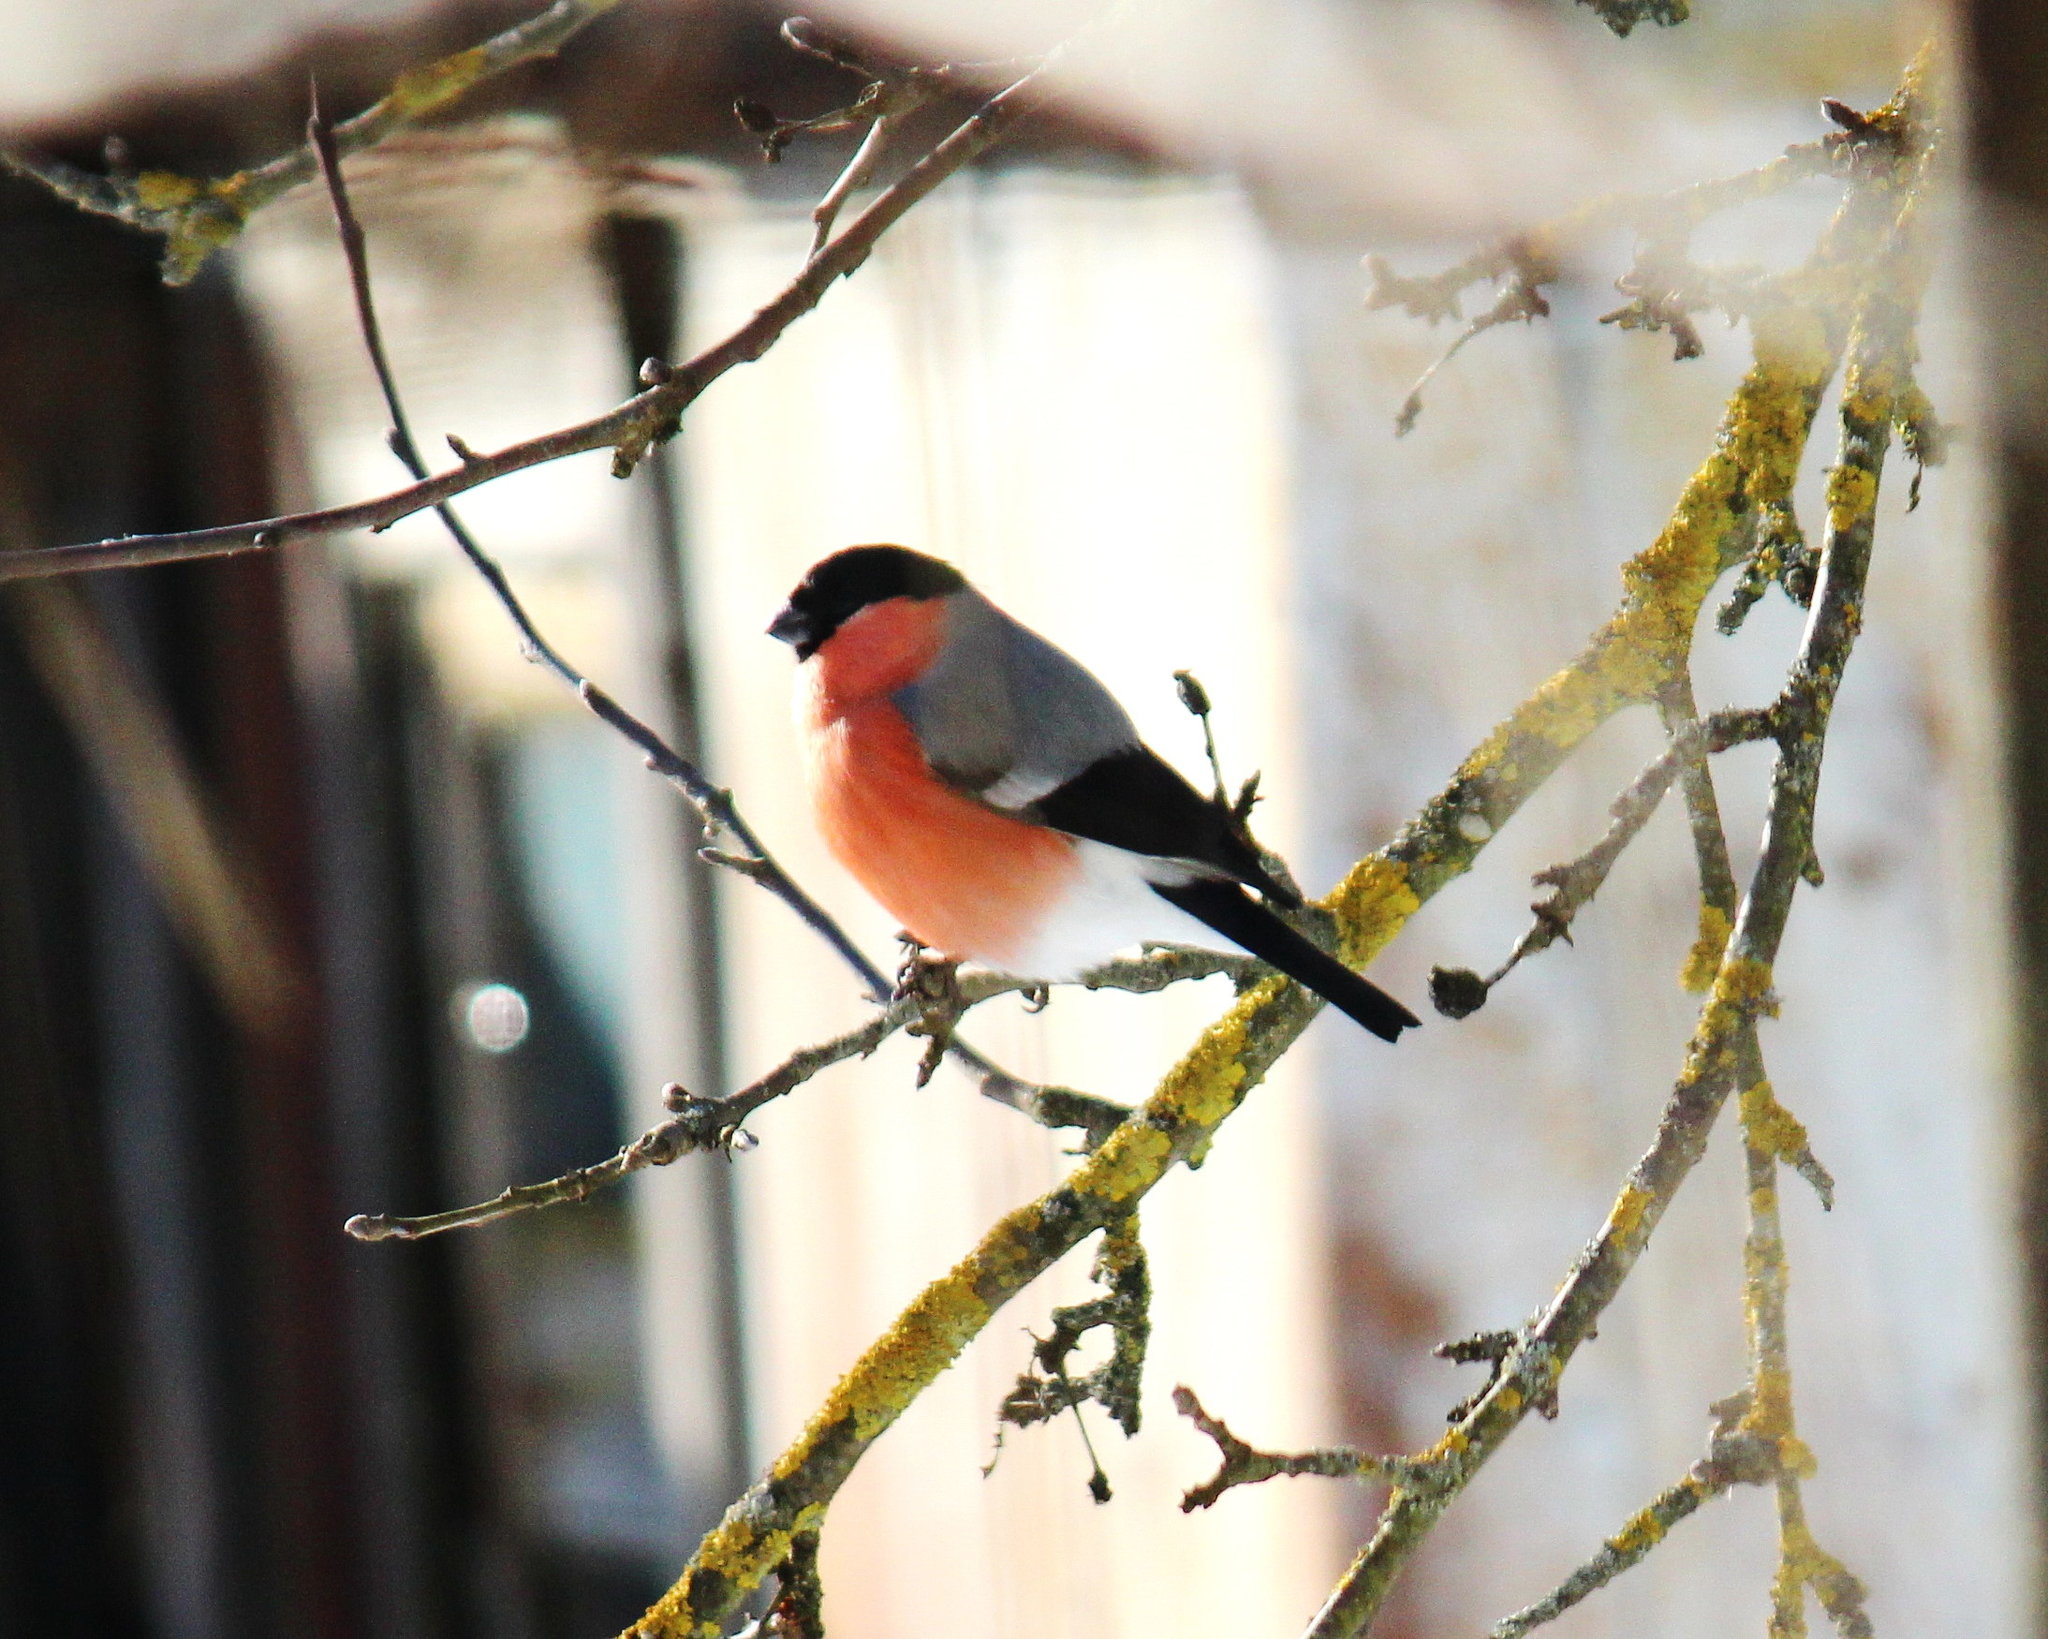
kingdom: Animalia
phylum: Chordata
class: Aves
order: Passeriformes
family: Fringillidae
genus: Pyrrhula
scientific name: Pyrrhula pyrrhula
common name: Eurasian bullfinch
